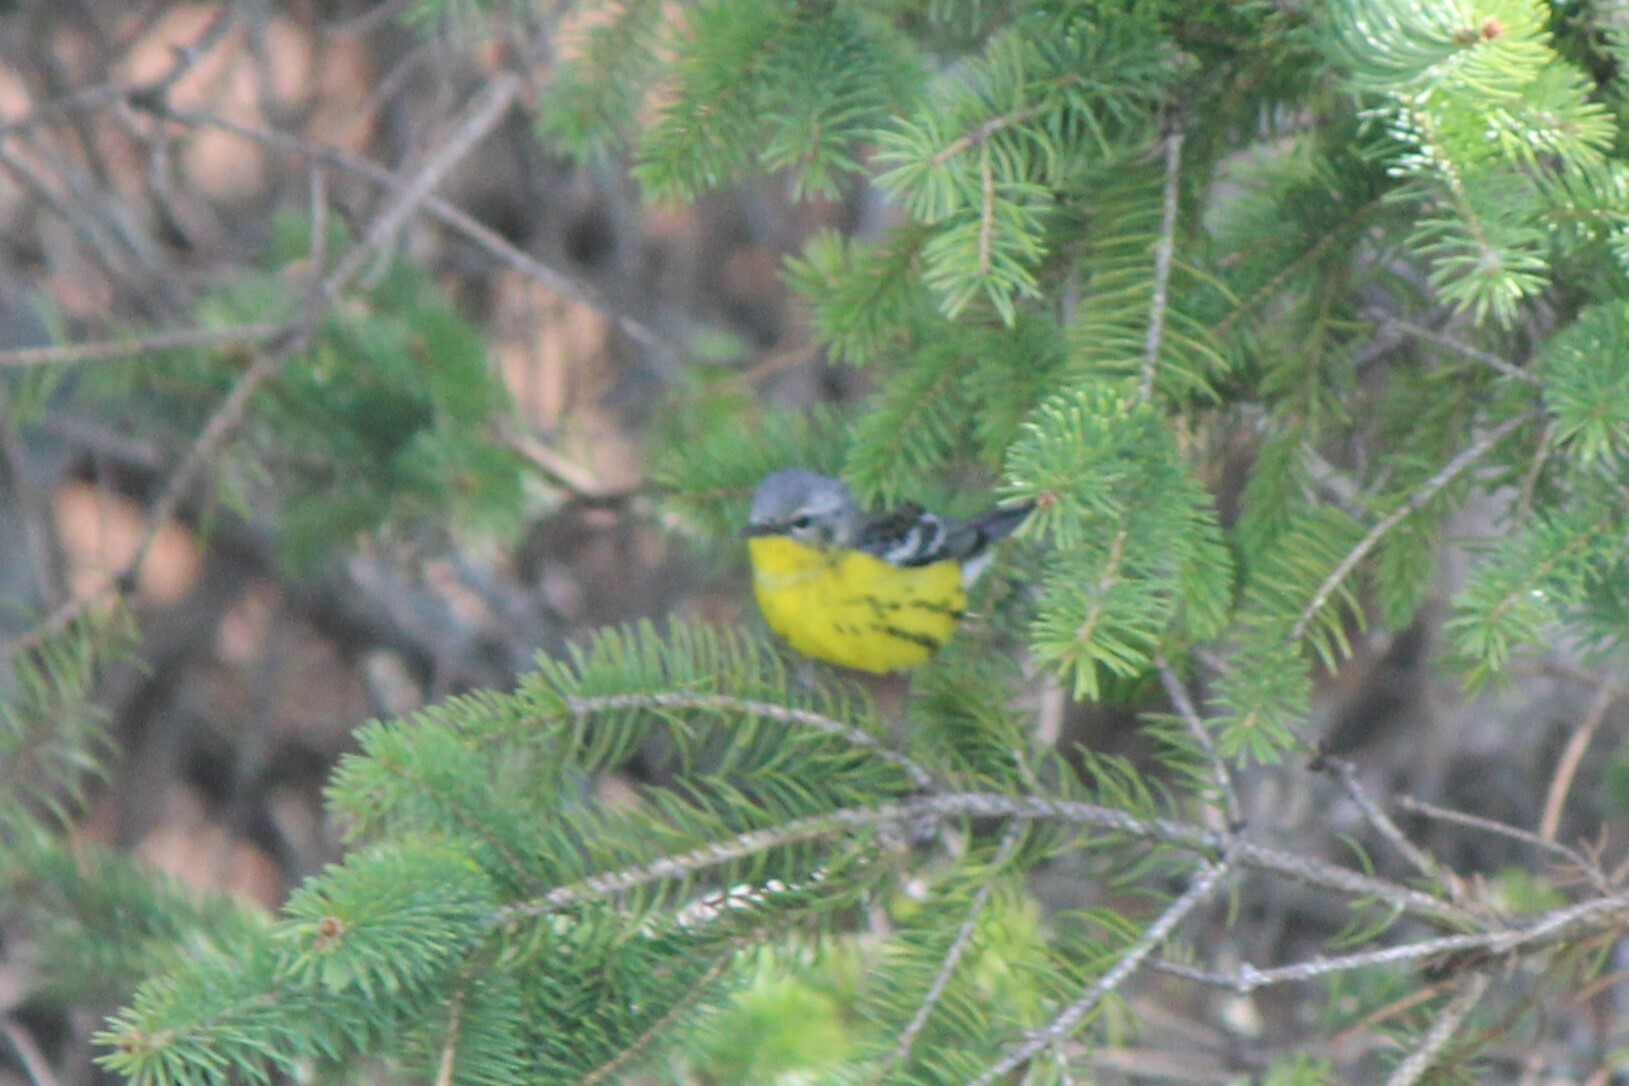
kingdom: Animalia
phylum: Chordata
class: Aves
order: Passeriformes
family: Parulidae
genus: Setophaga
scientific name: Setophaga magnolia
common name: Magnolia warbler
